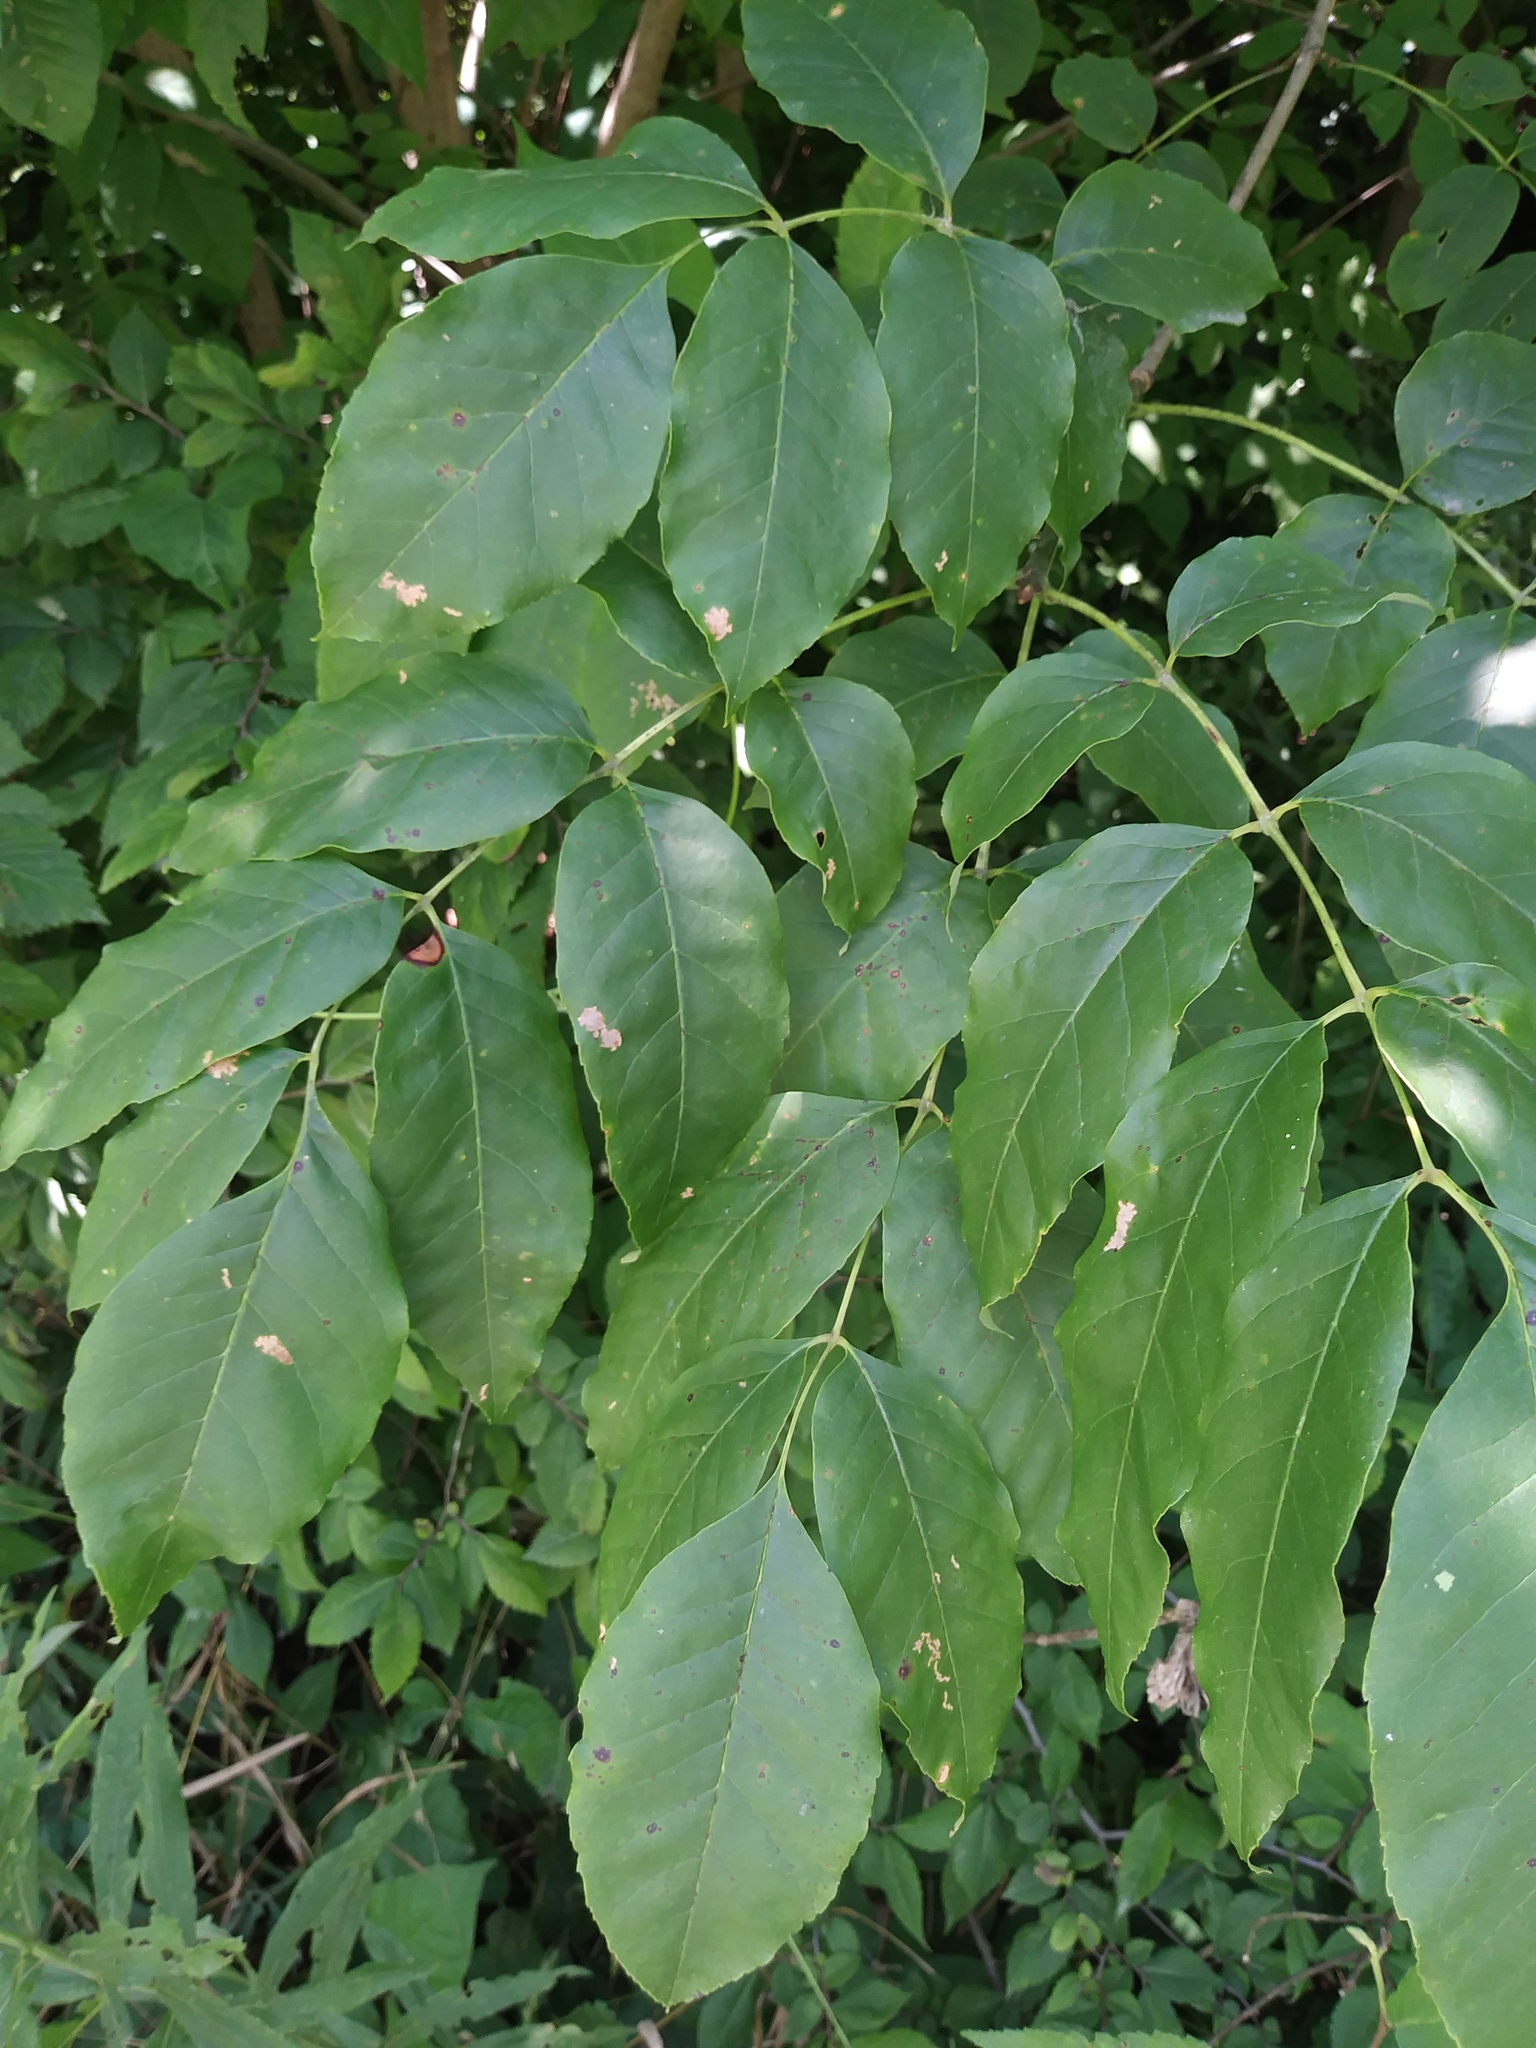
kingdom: Plantae
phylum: Tracheophyta
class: Magnoliopsida
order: Lamiales
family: Oleaceae
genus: Fraxinus
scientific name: Fraxinus pennsylvanica
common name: Green ash
